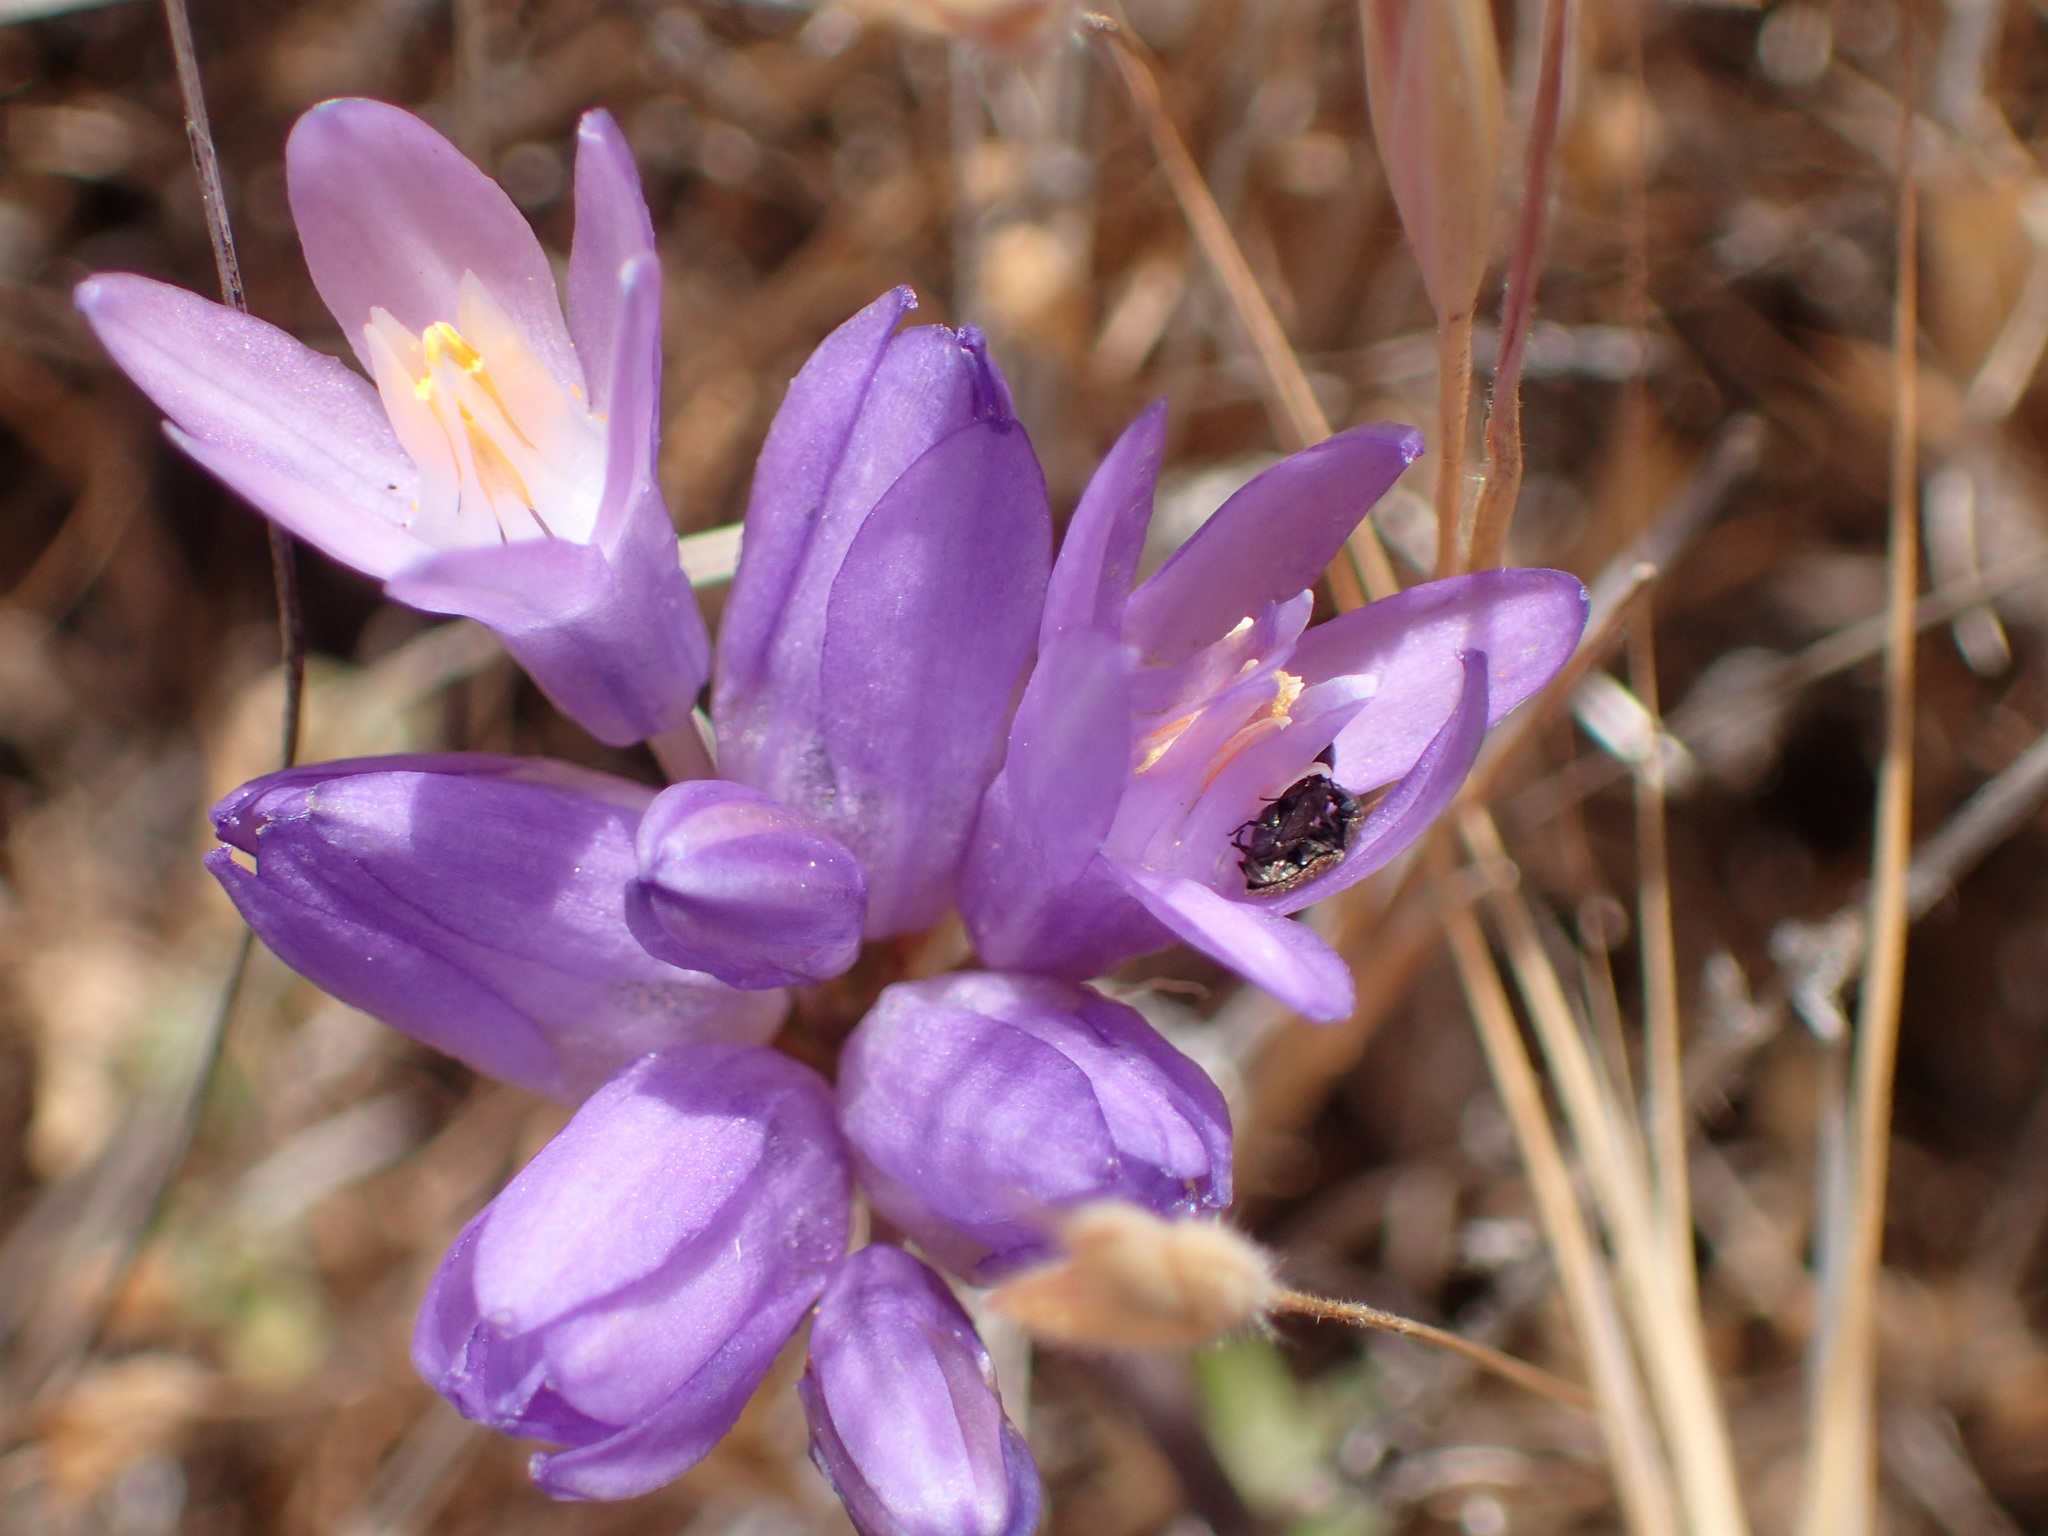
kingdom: Plantae
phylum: Tracheophyta
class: Liliopsida
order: Asparagales
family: Asparagaceae
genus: Dipterostemon
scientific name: Dipterostemon capitatus
